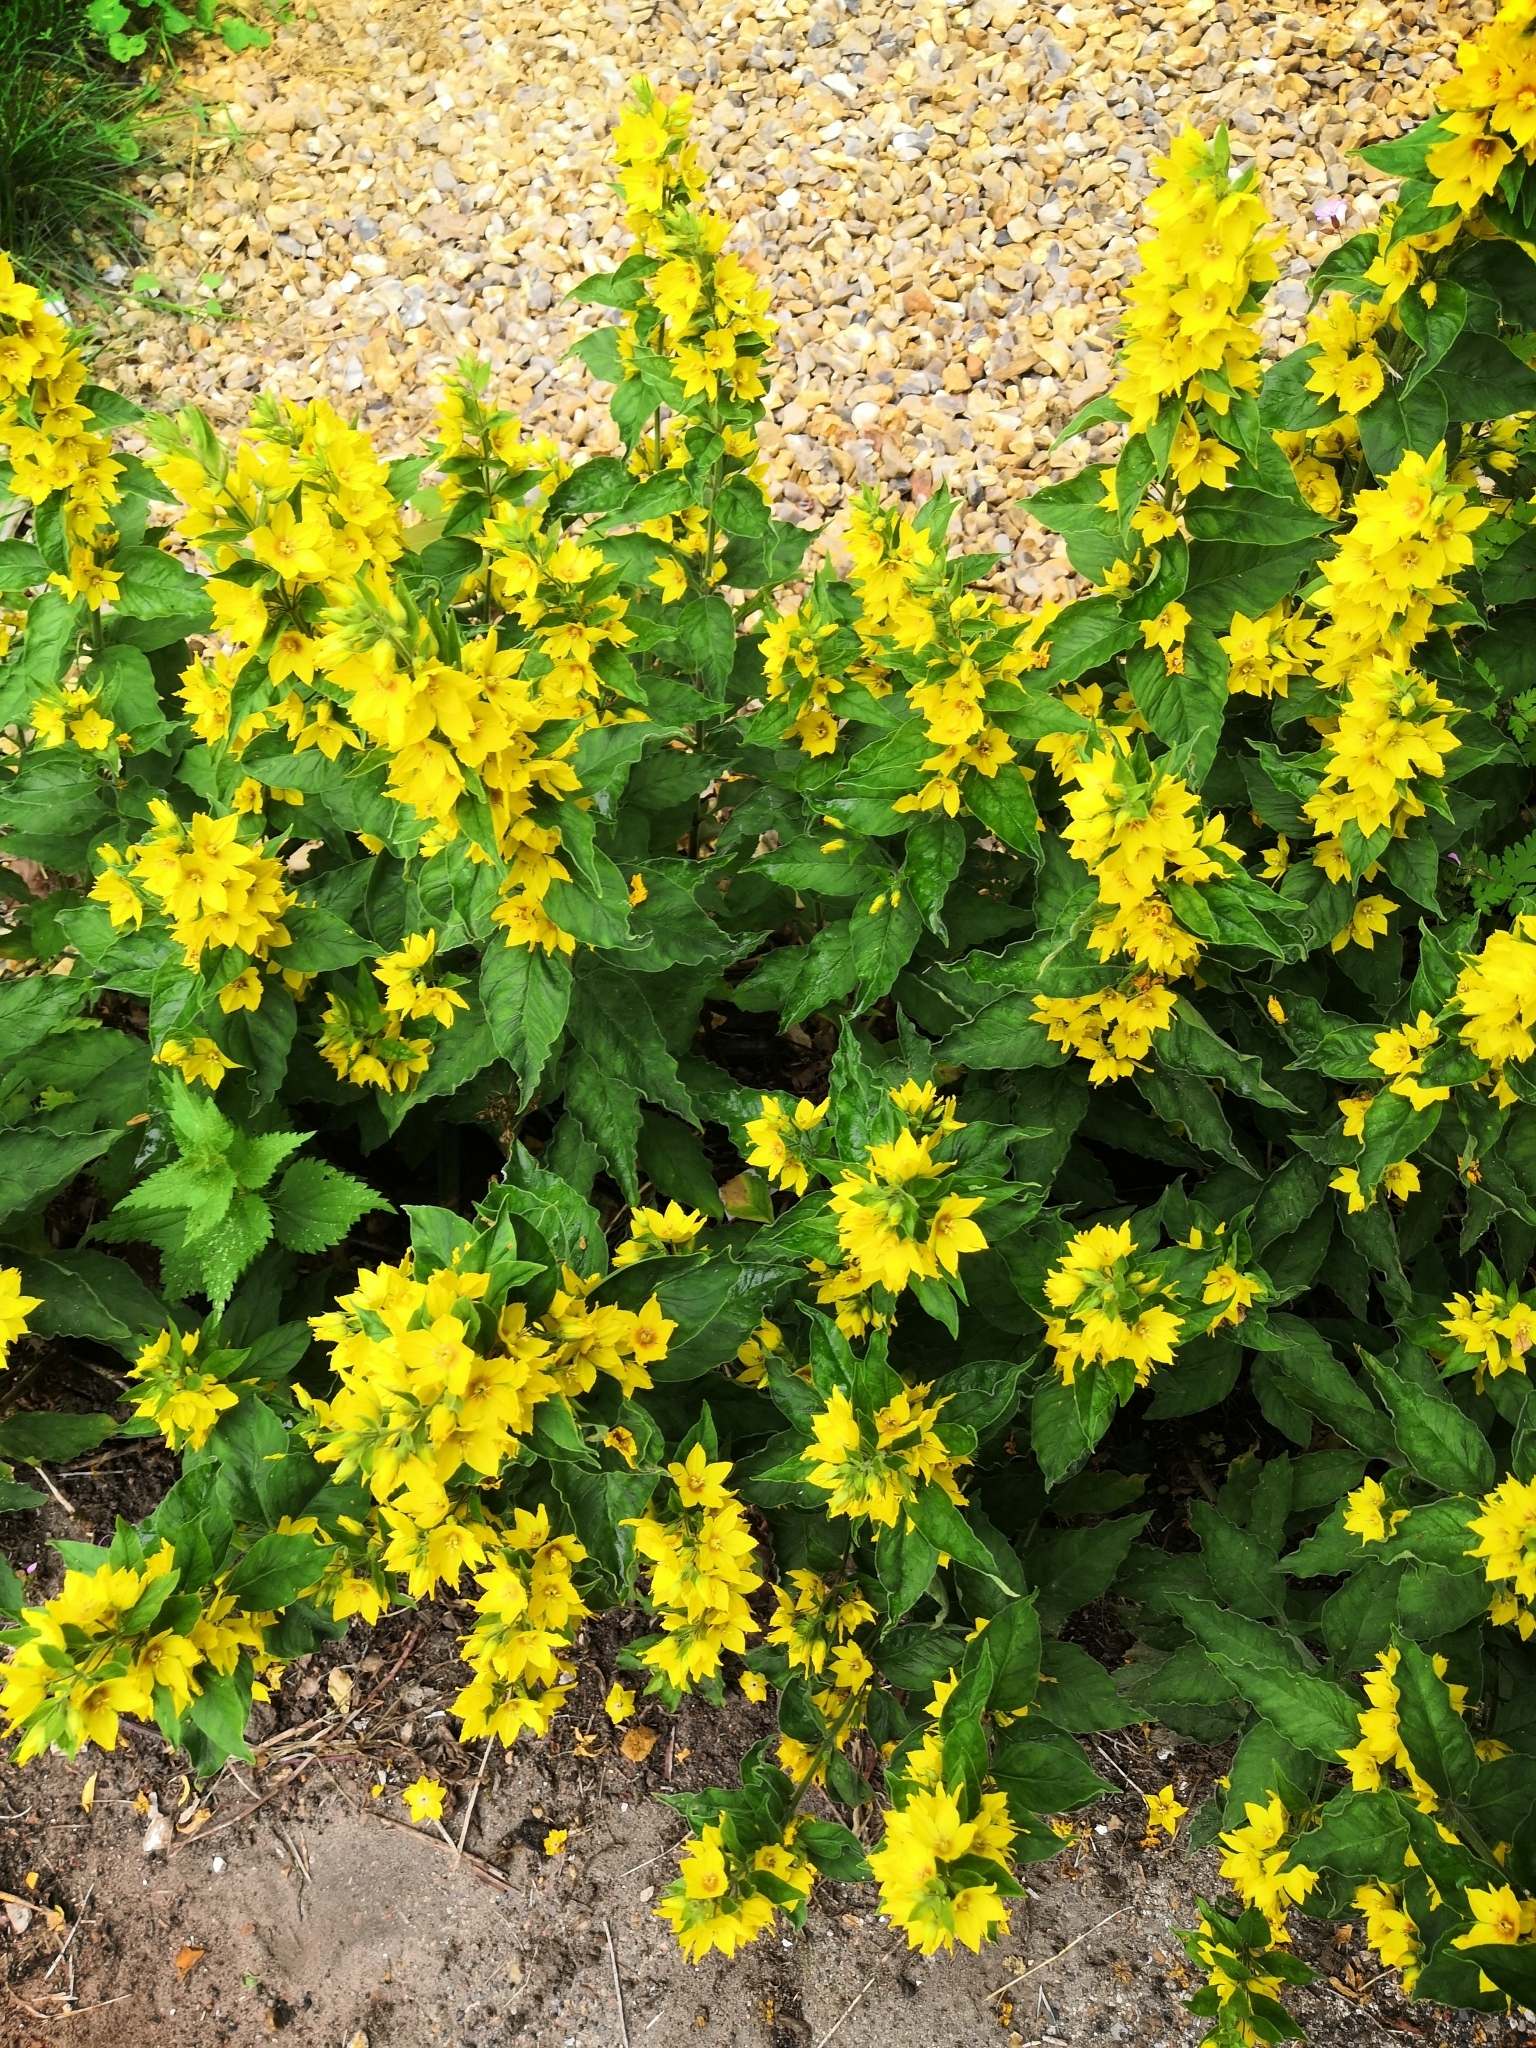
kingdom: Plantae
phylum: Tracheophyta
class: Magnoliopsida
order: Ericales
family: Primulaceae
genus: Lysimachia
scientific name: Lysimachia punctata
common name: Dotted loosestrife
